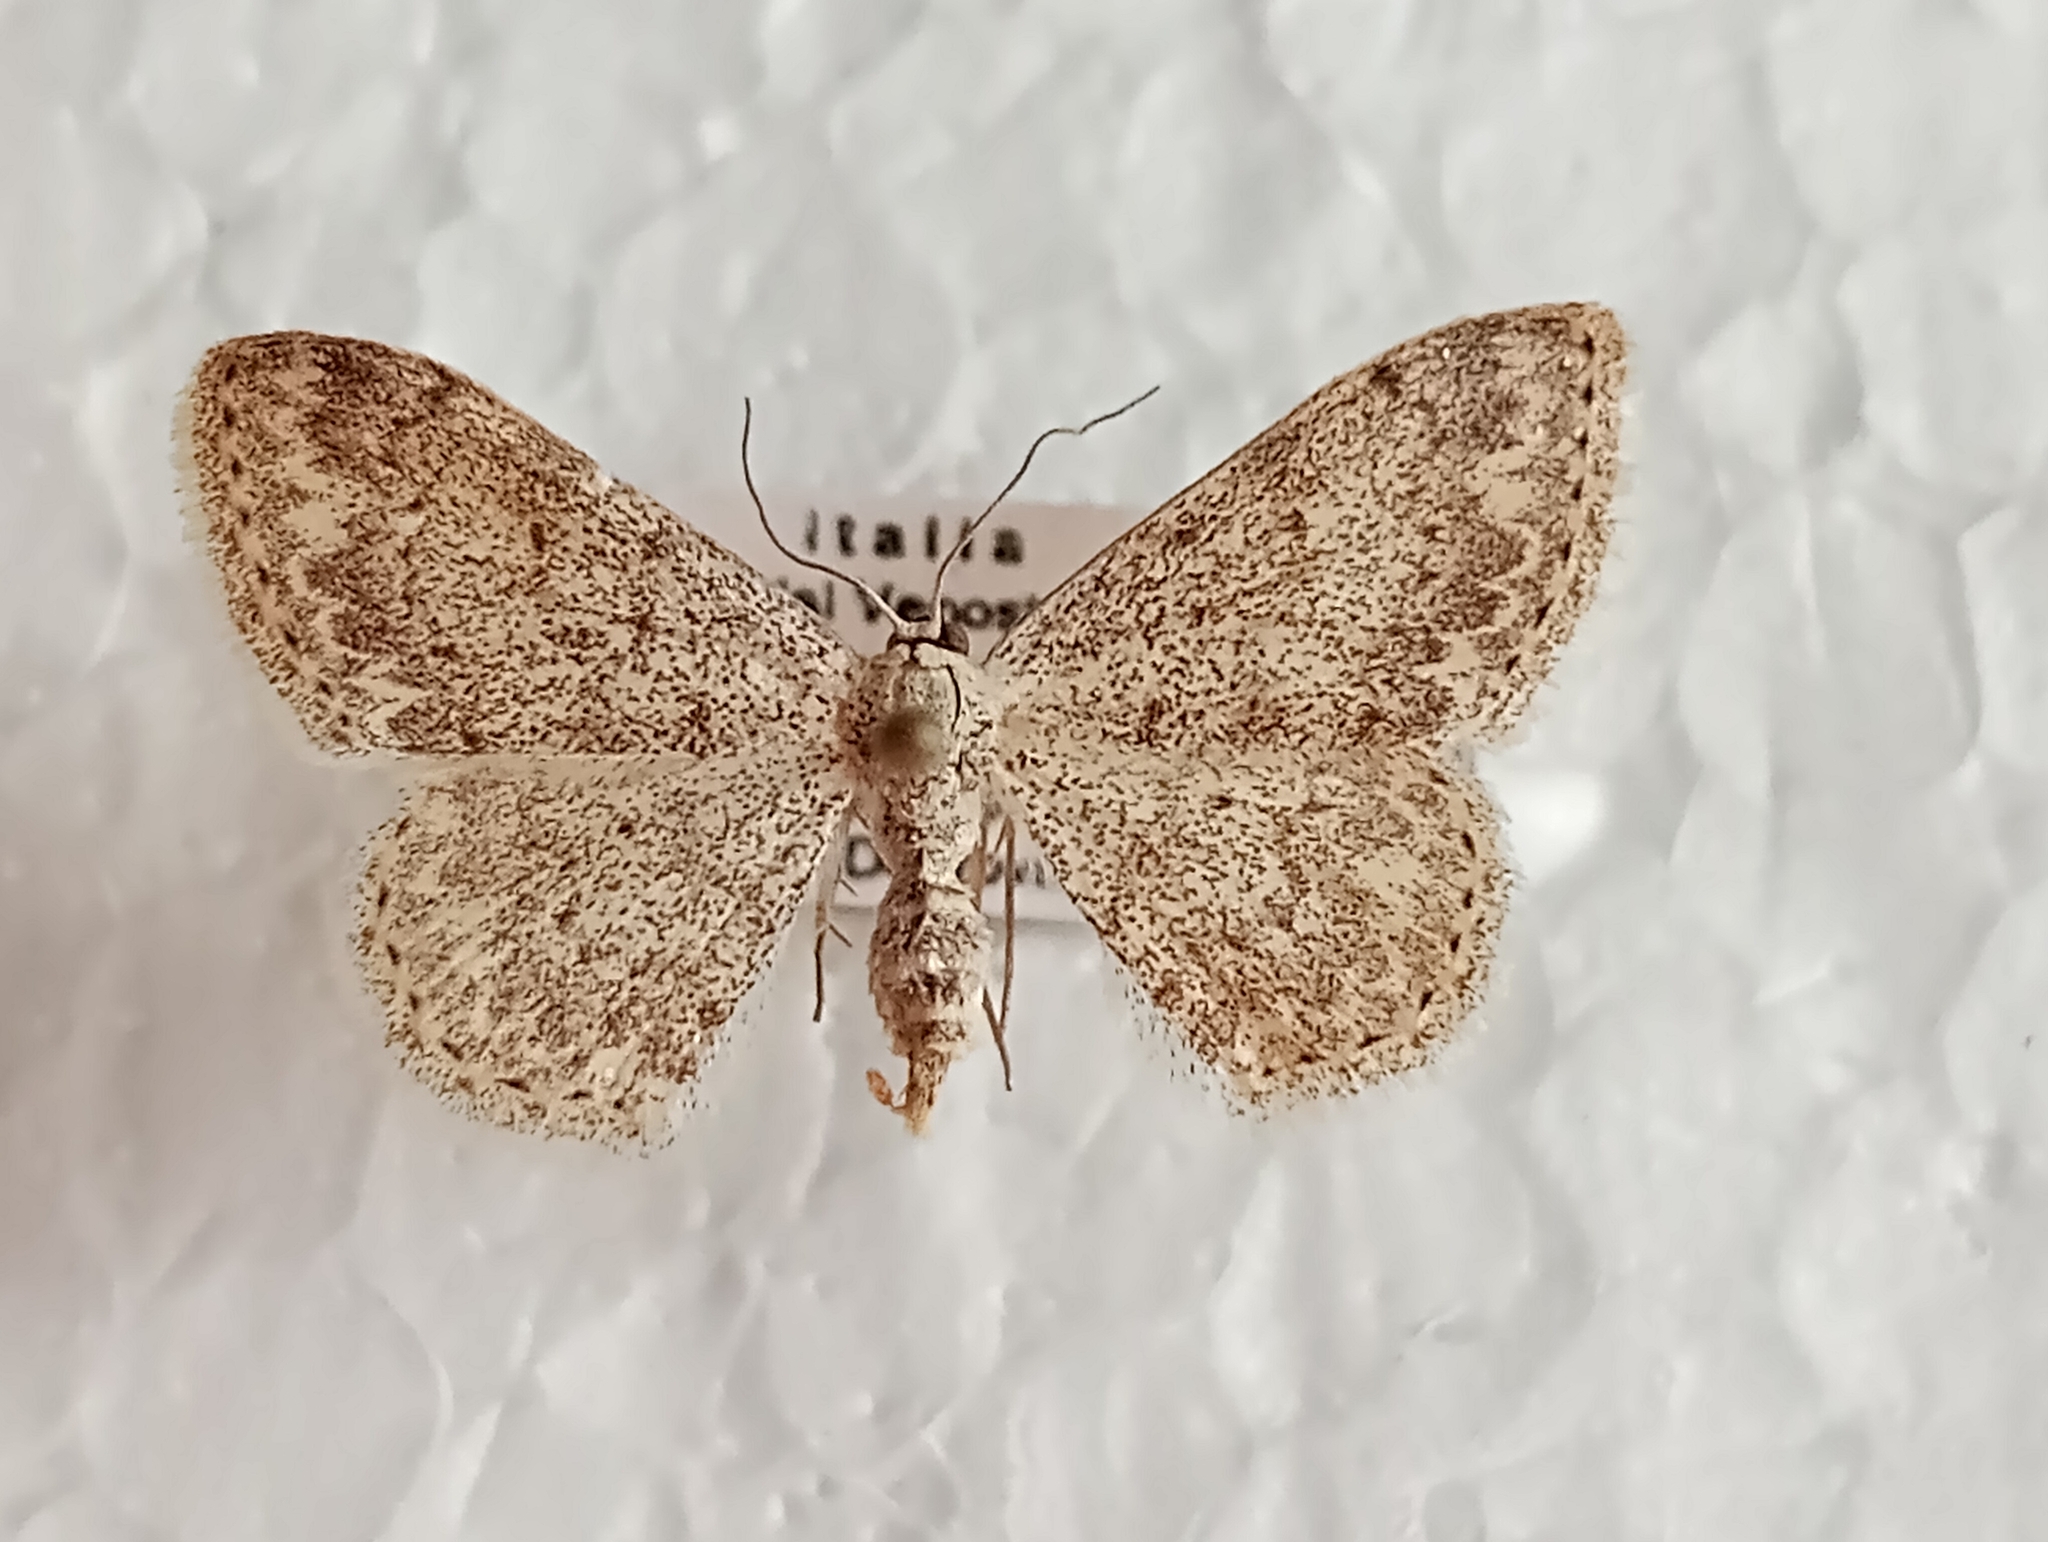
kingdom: Animalia
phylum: Arthropoda
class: Insecta
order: Lepidoptera
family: Geometridae
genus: Scopula
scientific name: Scopula marginepunctata
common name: Mullein wave
